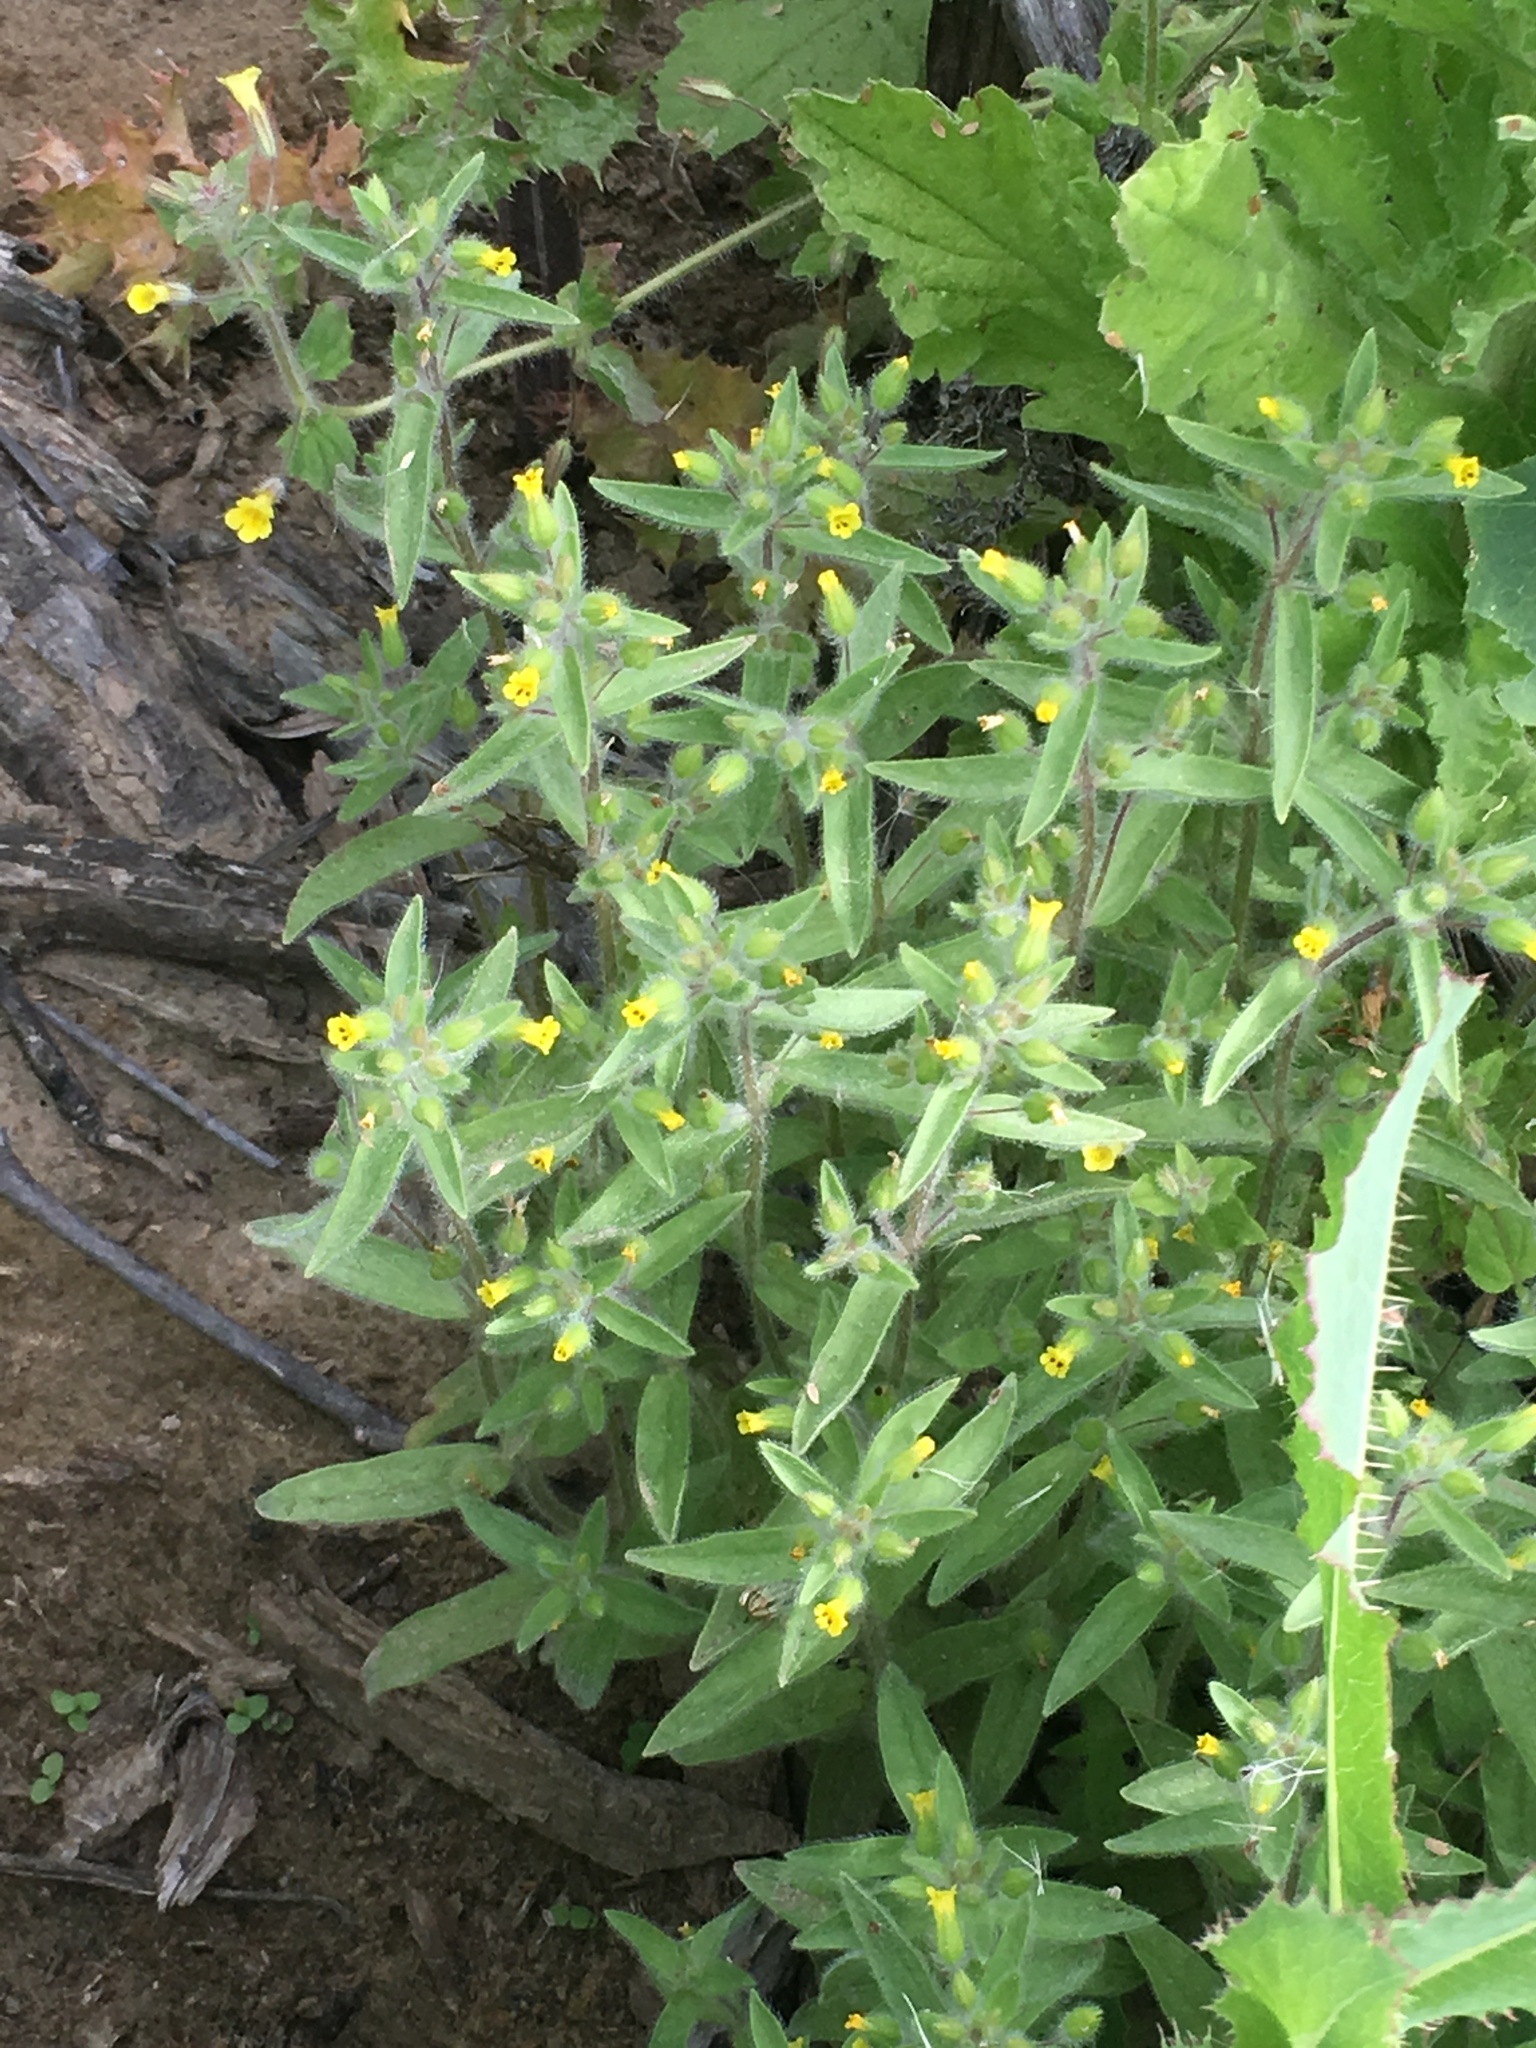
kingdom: Plantae
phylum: Tracheophyta
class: Magnoliopsida
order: Lamiales
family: Phrymaceae
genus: Mimetanthe
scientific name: Mimetanthe pilosa
